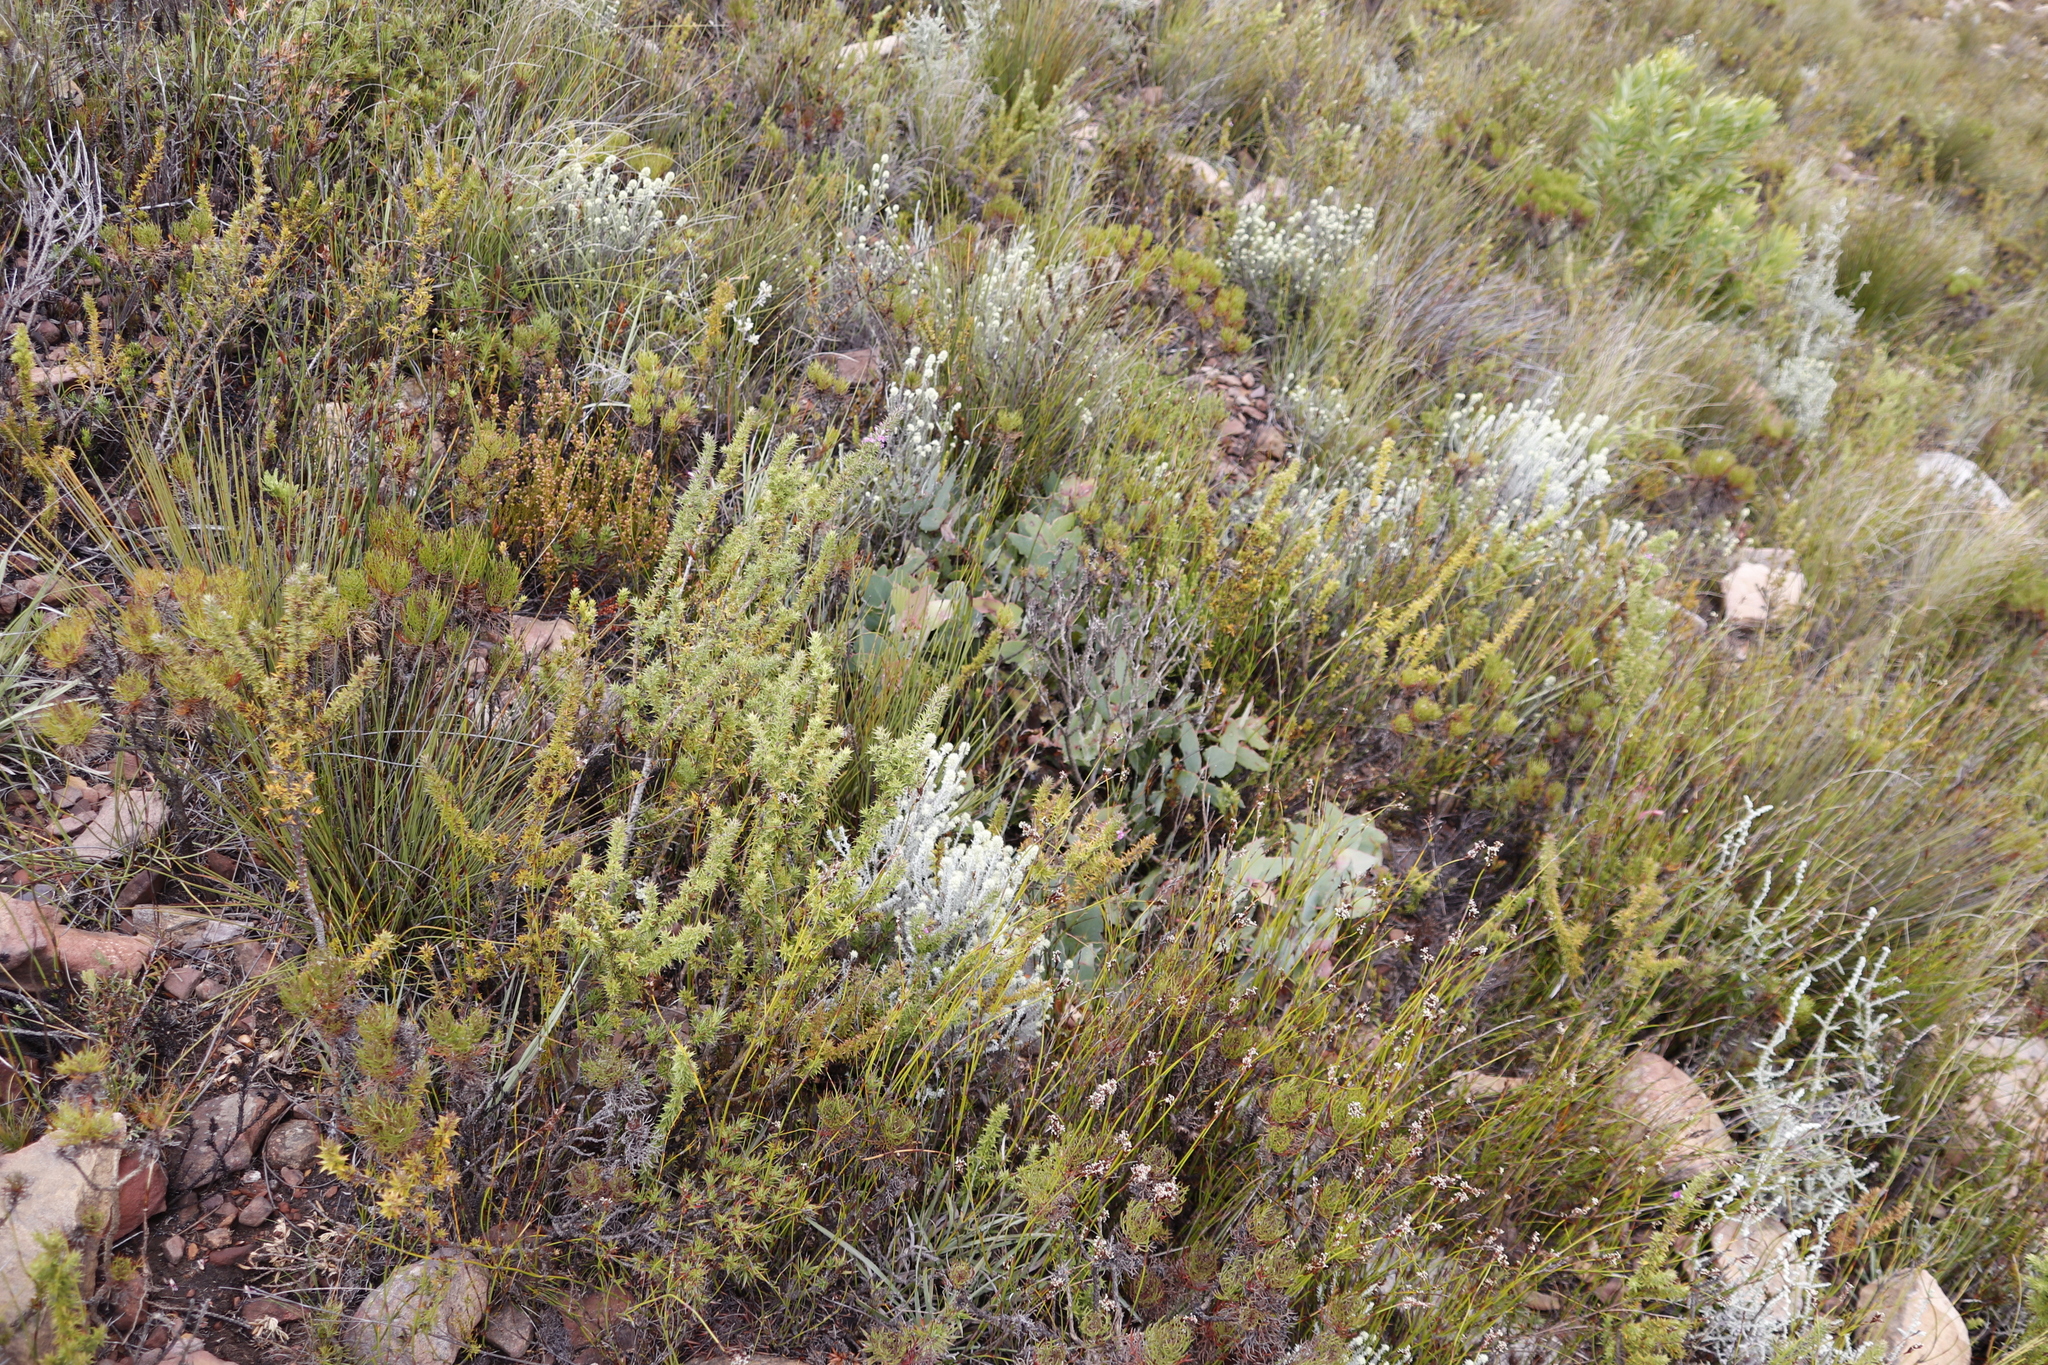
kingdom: Plantae
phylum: Tracheophyta
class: Magnoliopsida
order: Proteales
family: Proteaceae
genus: Protea
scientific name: Protea amplexicaulis
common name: Clasping-leaf sugarbush
